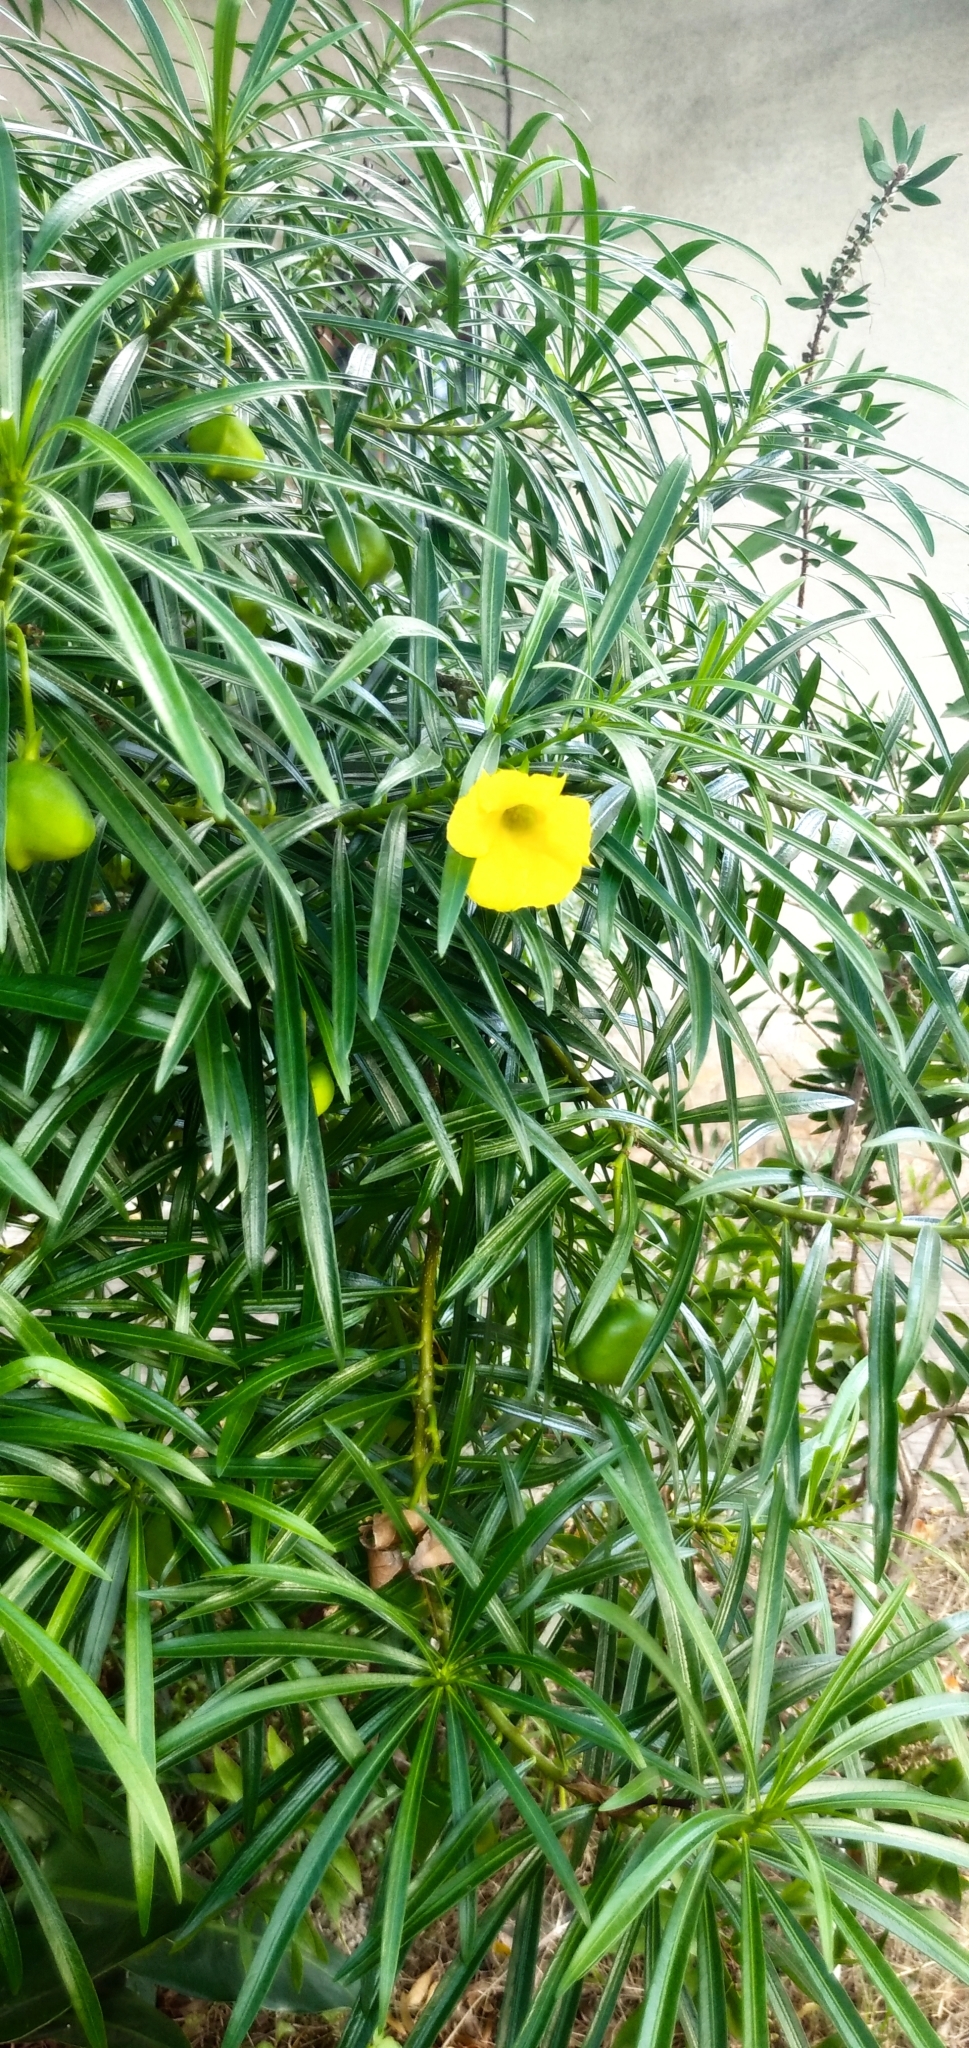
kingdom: Plantae
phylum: Tracheophyta
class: Magnoliopsida
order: Gentianales
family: Apocynaceae
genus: Cascabela
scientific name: Cascabela thevetia
